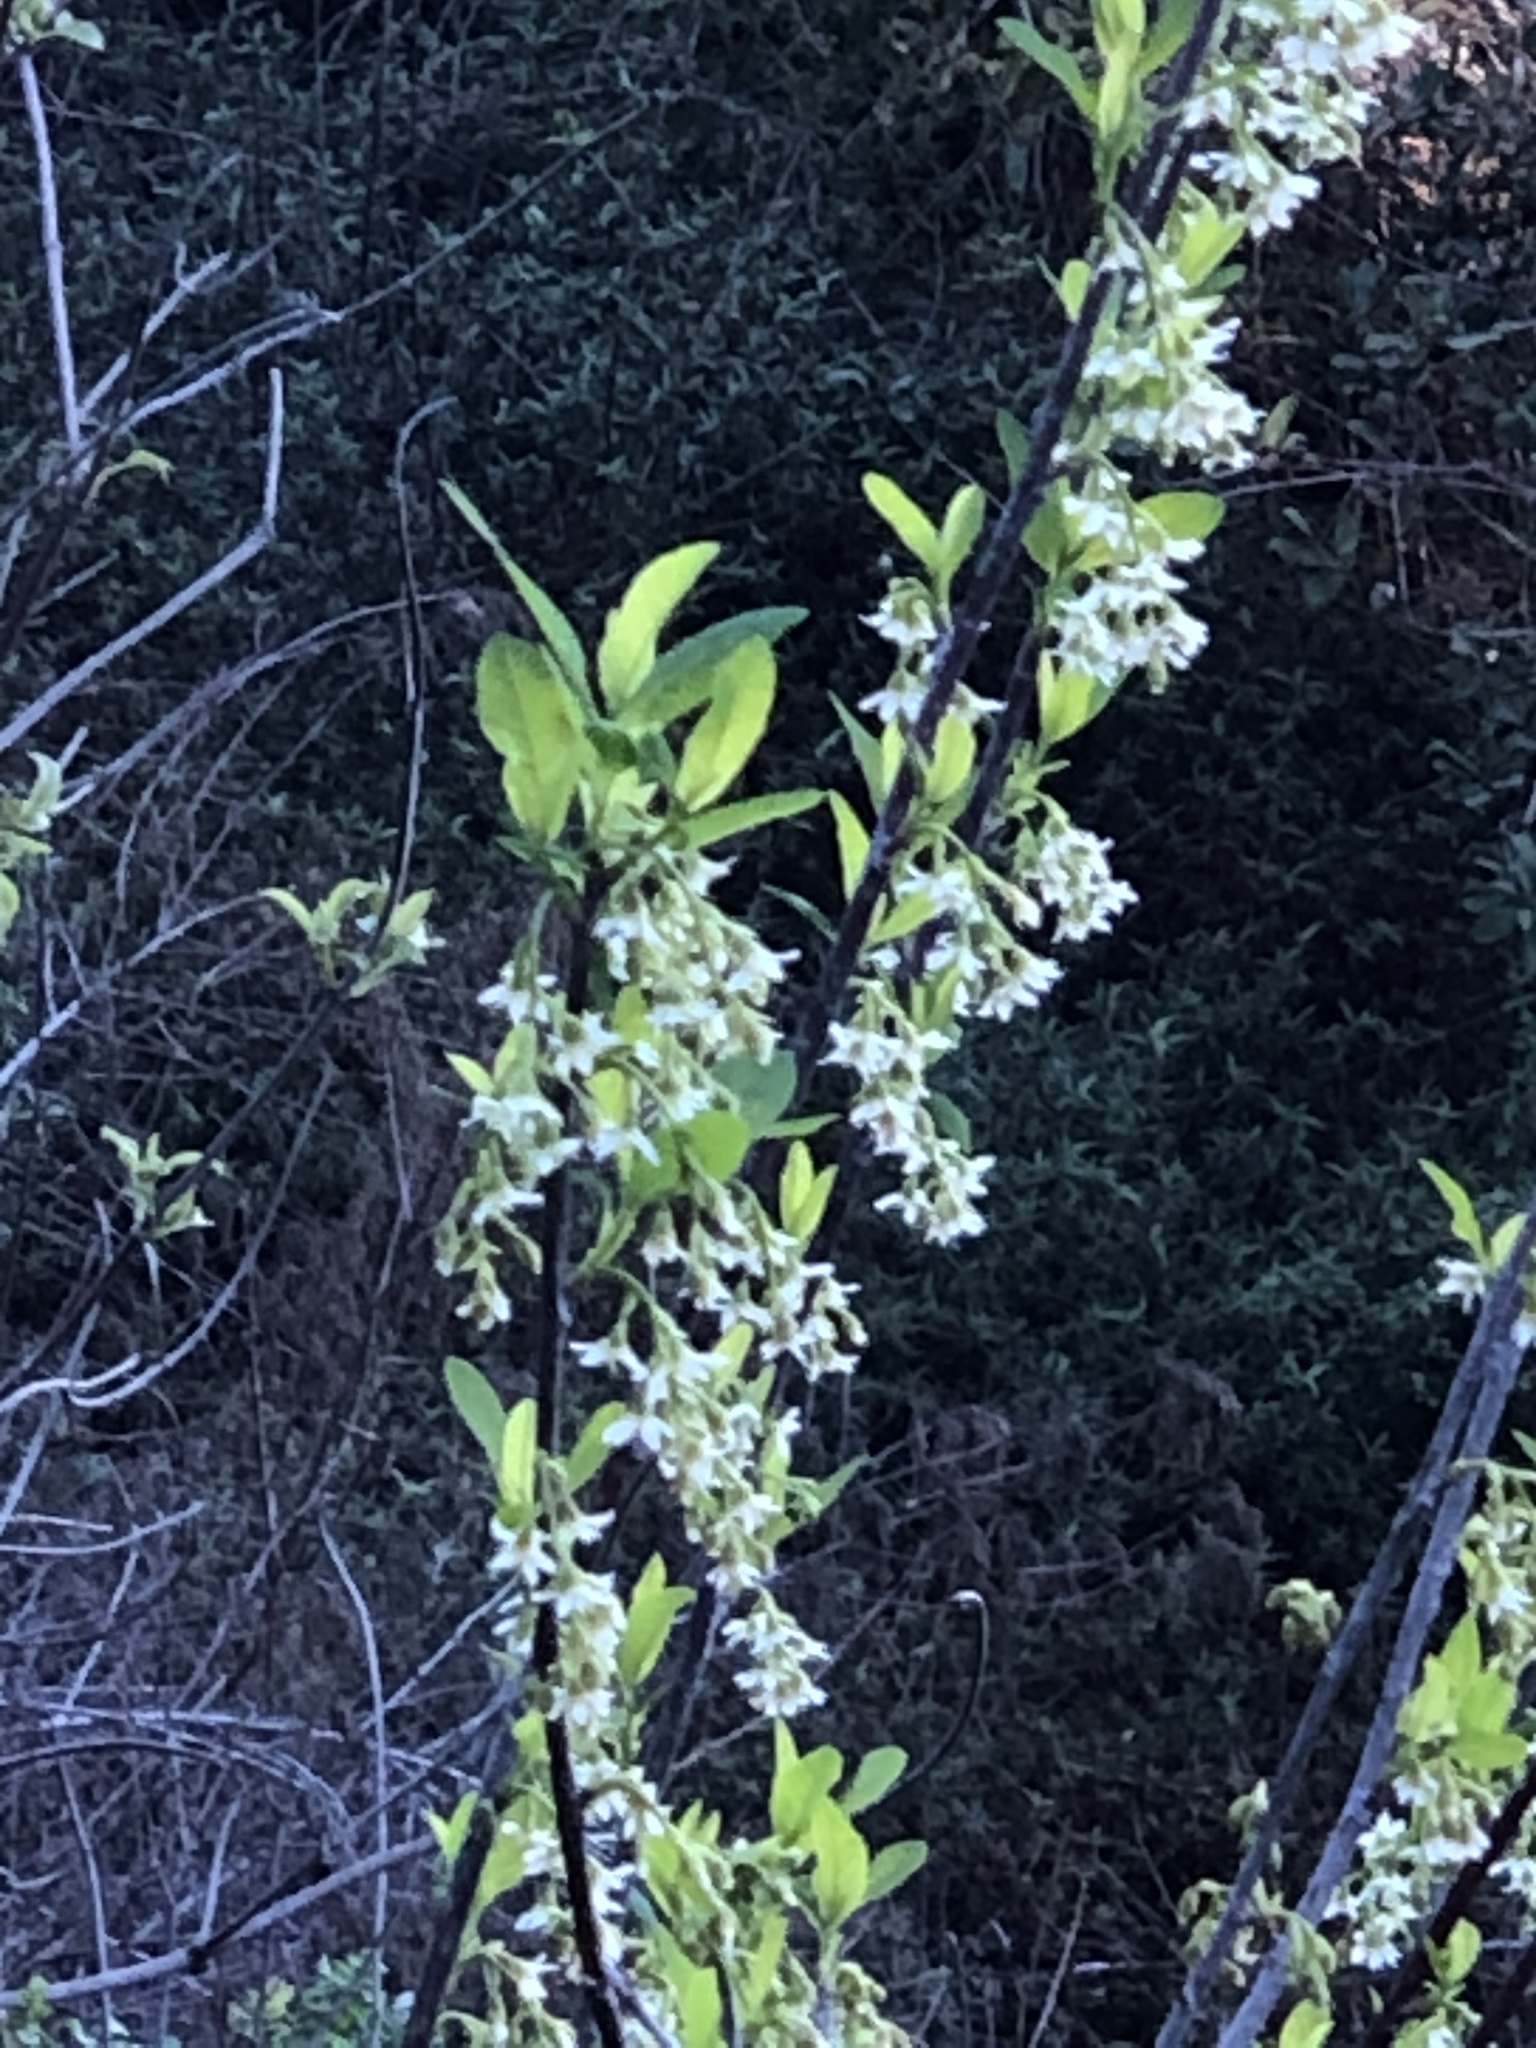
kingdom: Plantae
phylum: Tracheophyta
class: Magnoliopsida
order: Rosales
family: Rosaceae
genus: Oemleria
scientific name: Oemleria cerasiformis
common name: Osoberry
